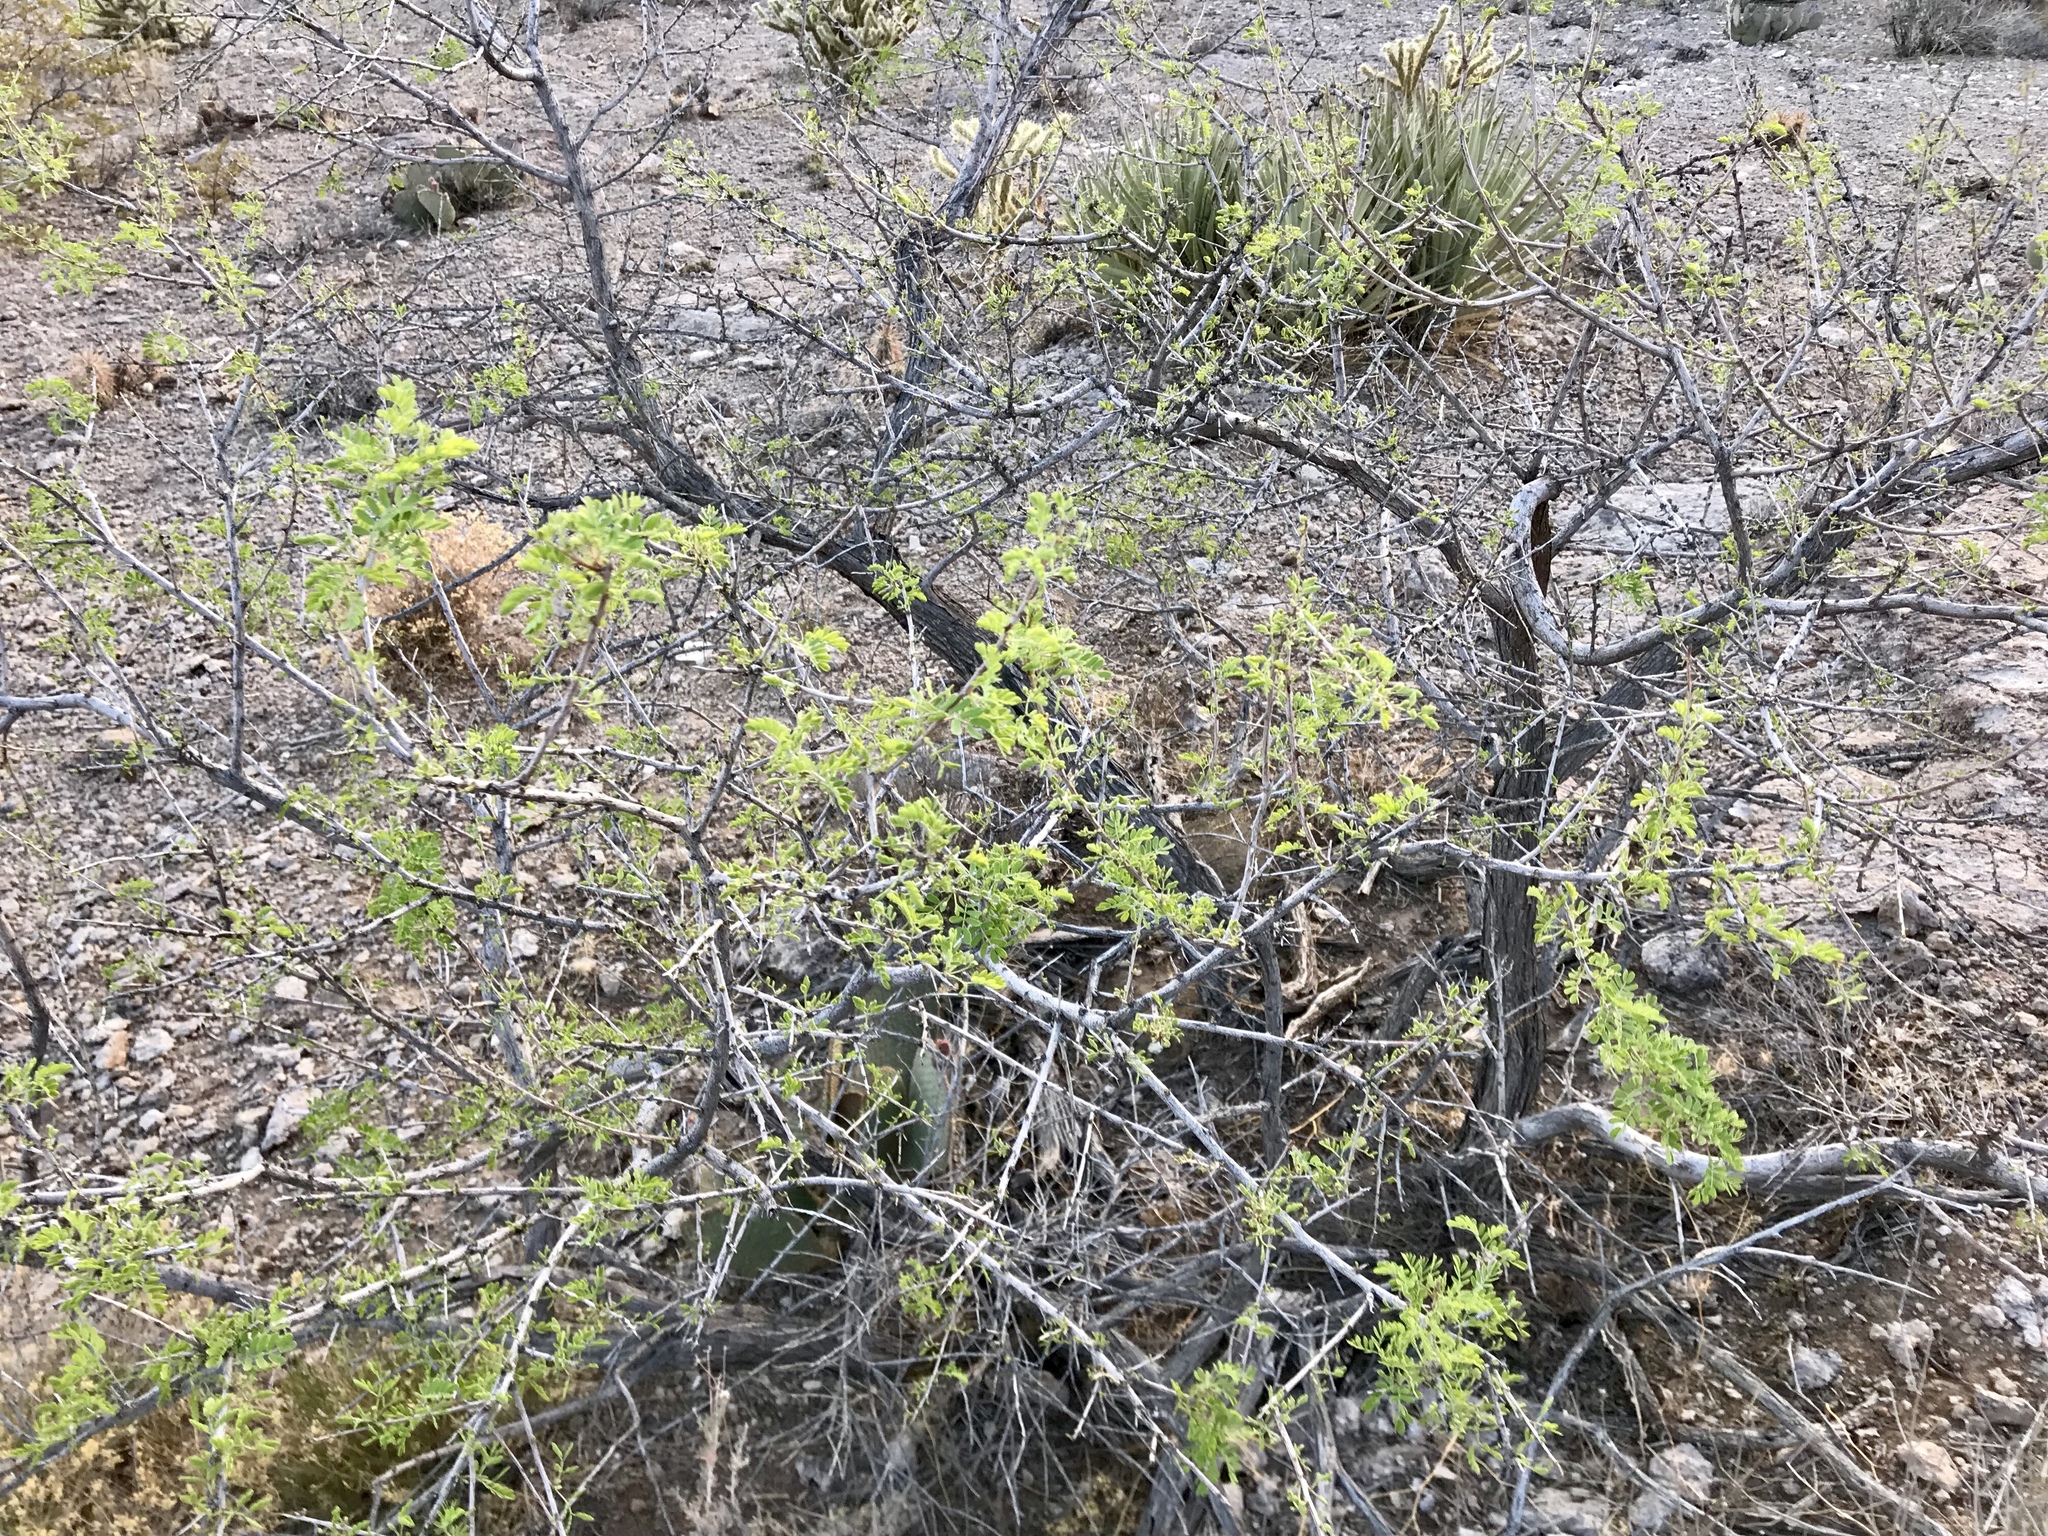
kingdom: Plantae
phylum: Tracheophyta
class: Magnoliopsida
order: Fabales
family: Fabaceae
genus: Senegalia
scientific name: Senegalia greggii
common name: Texas-mimosa
